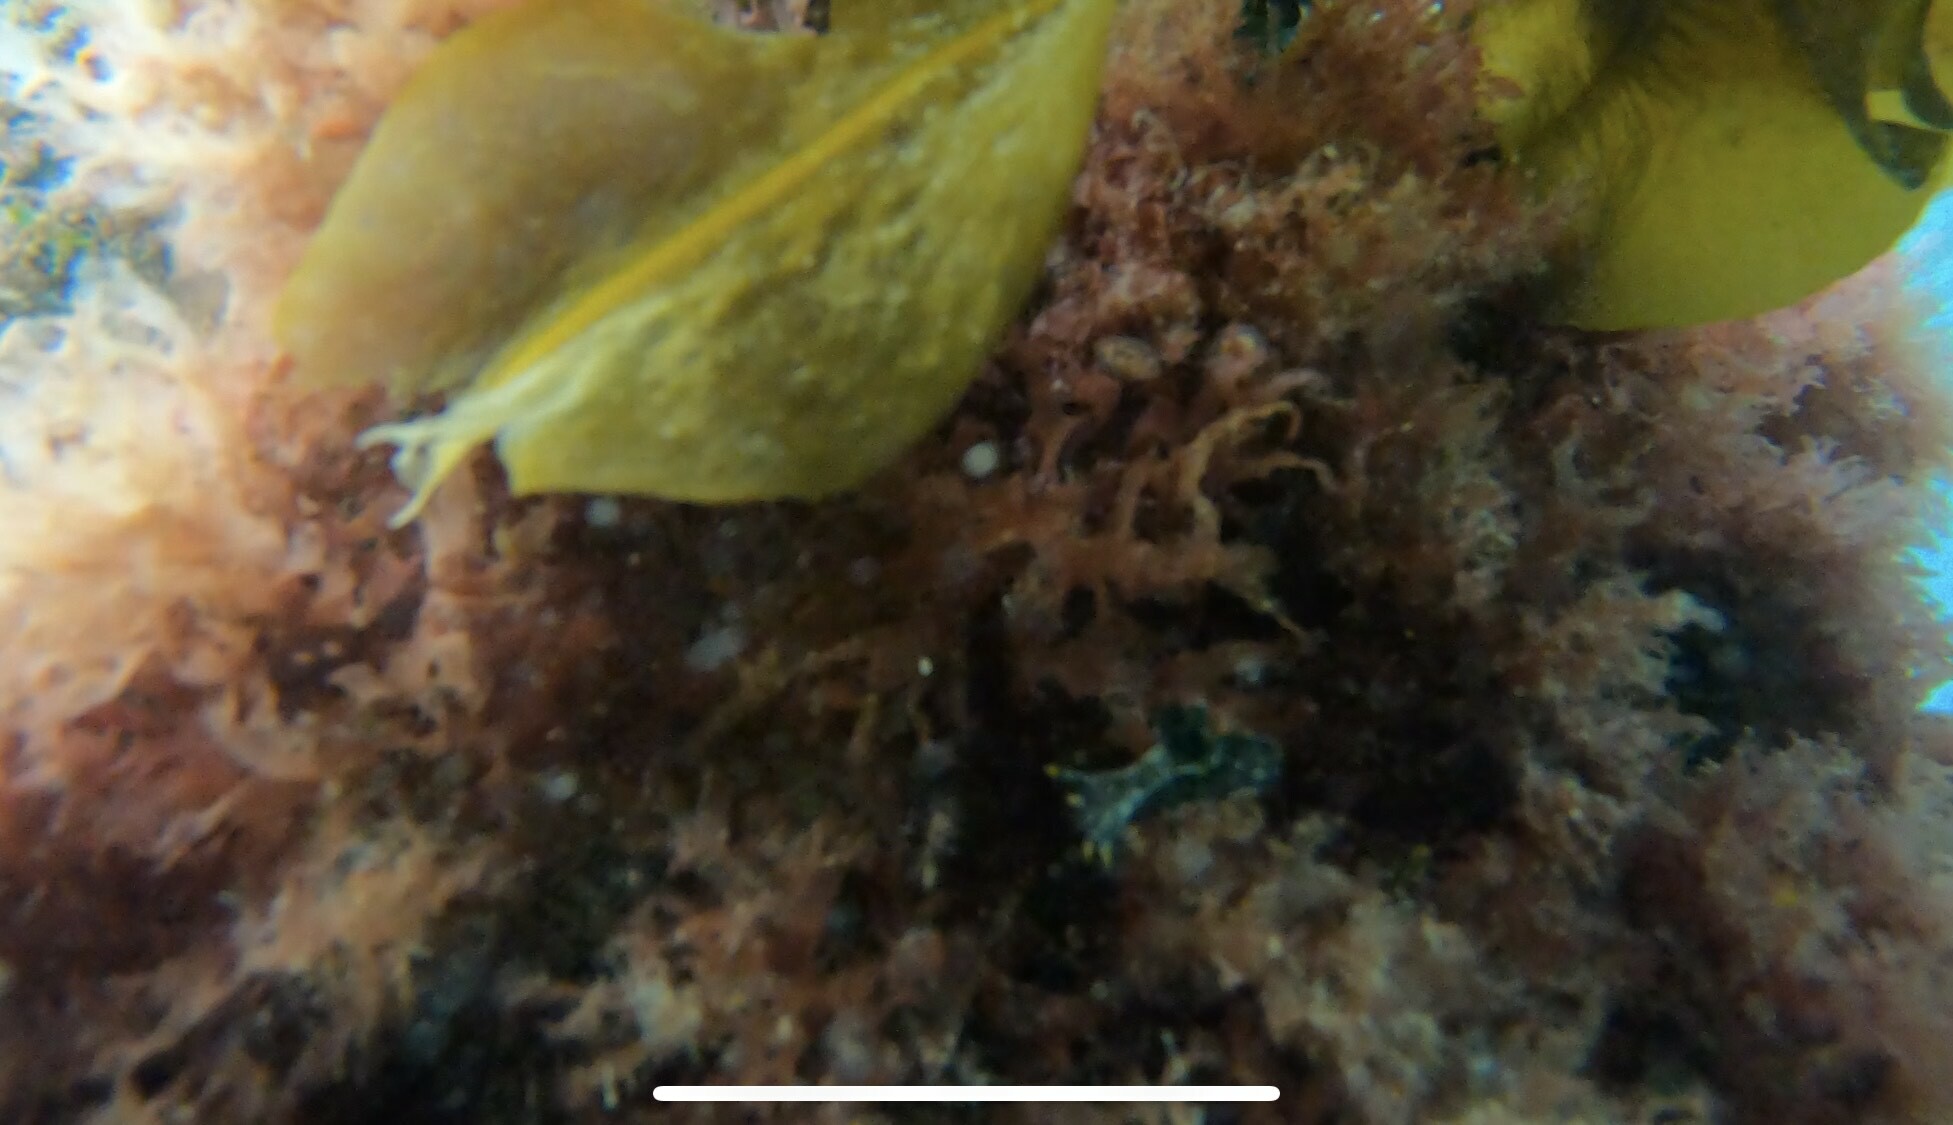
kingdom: Animalia
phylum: Mollusca
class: Gastropoda
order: Nudibranchia
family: Polyceridae
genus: Polycera
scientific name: Polycera hedgpethi
